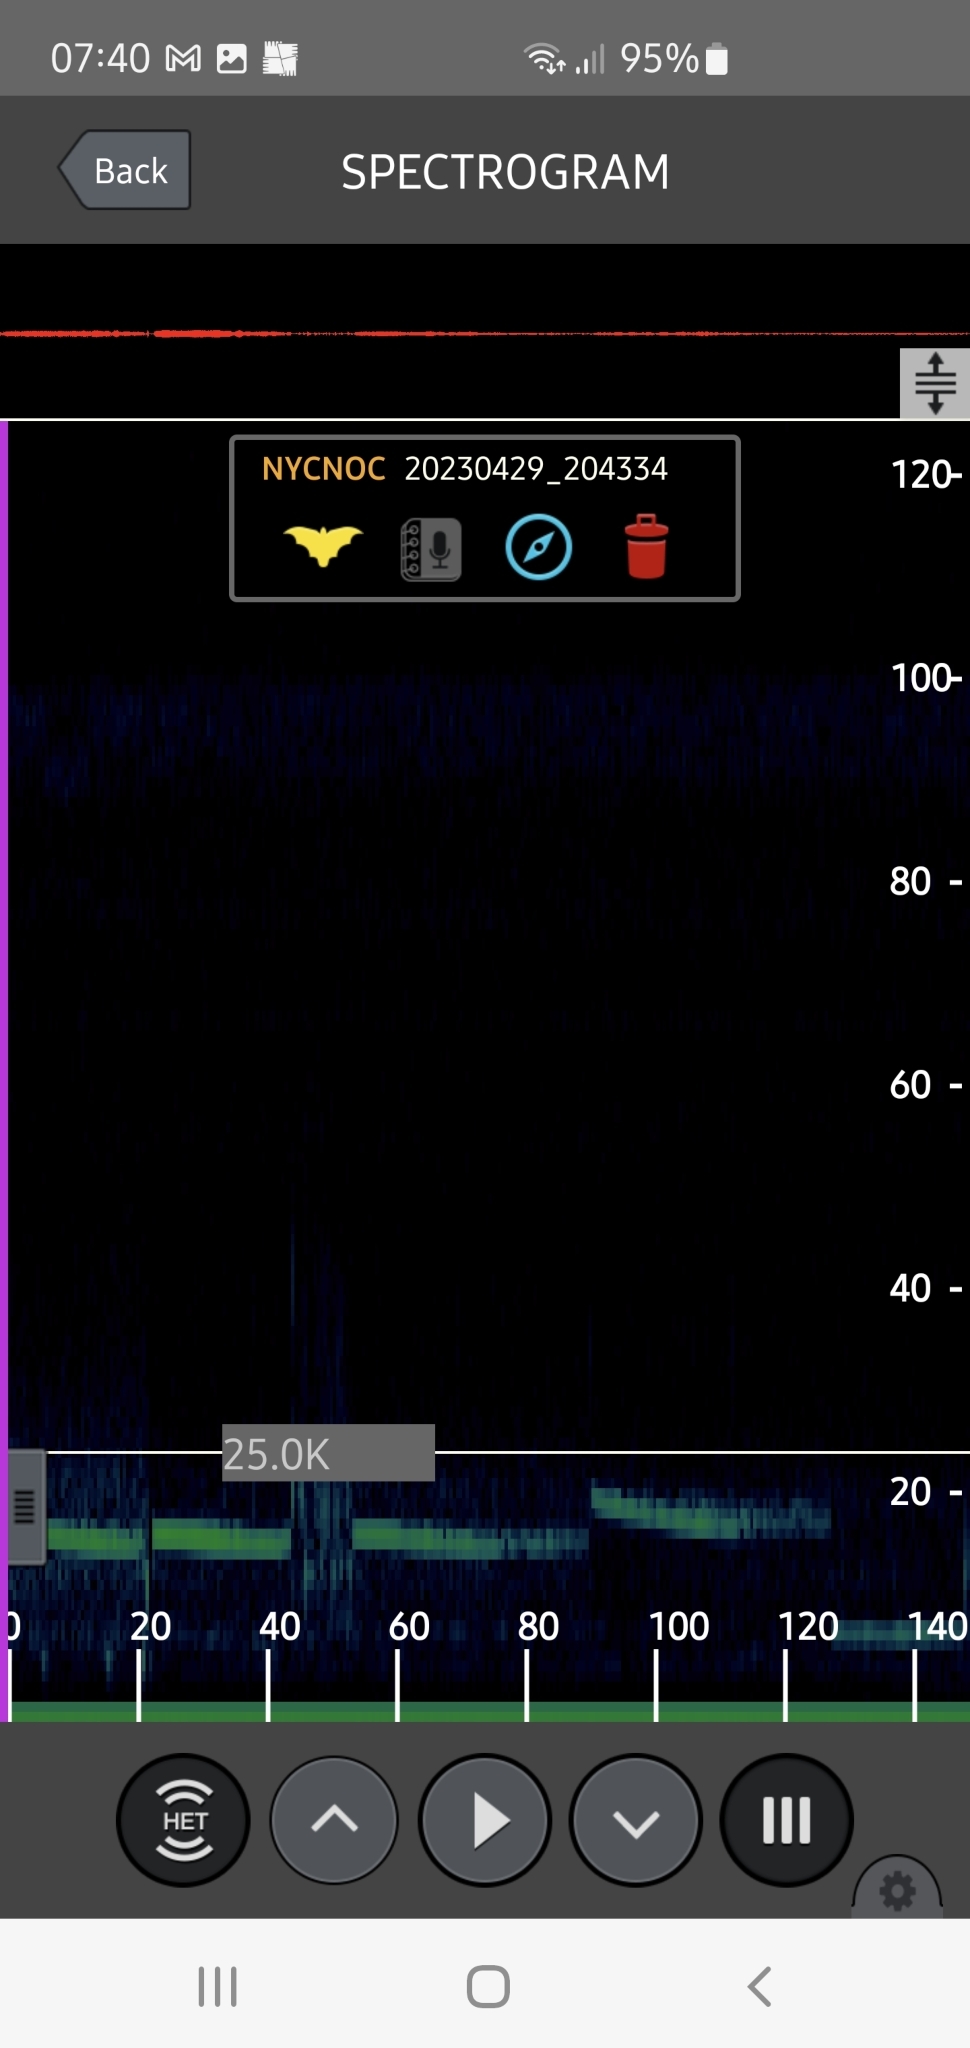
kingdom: Animalia
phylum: Chordata
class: Mammalia
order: Chiroptera
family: Vespertilionidae
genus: Nyctalus
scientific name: Nyctalus noctula
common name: Noctule
